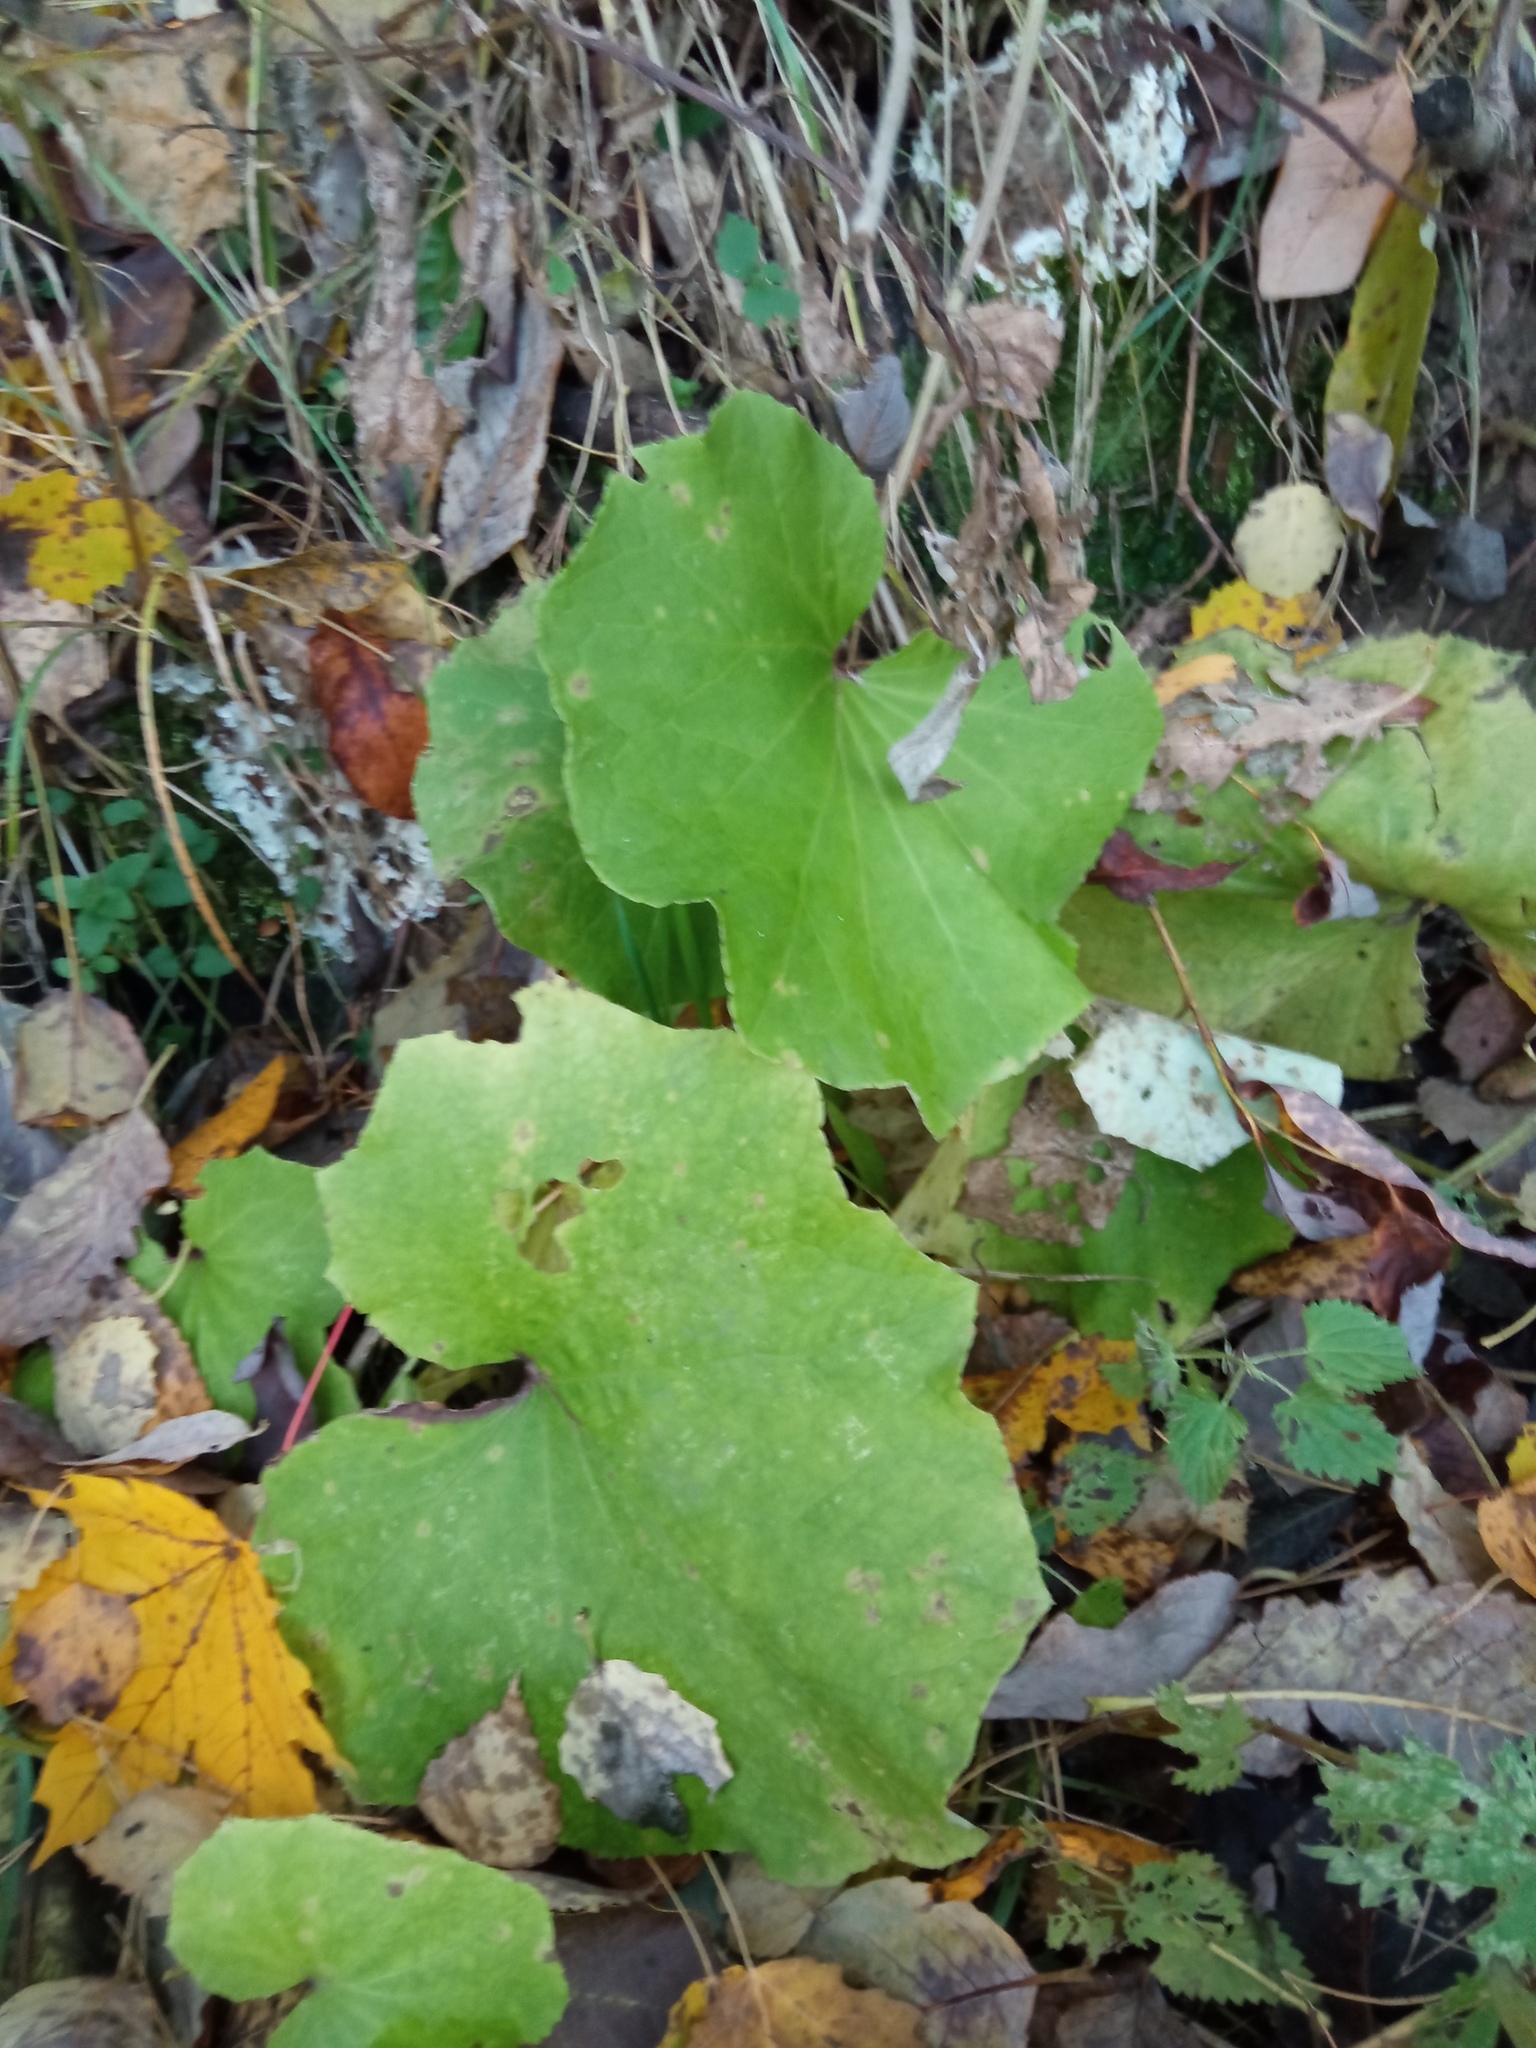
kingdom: Plantae
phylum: Tracheophyta
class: Magnoliopsida
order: Asterales
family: Asteraceae
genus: Tussilago
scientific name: Tussilago farfara
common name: Coltsfoot
